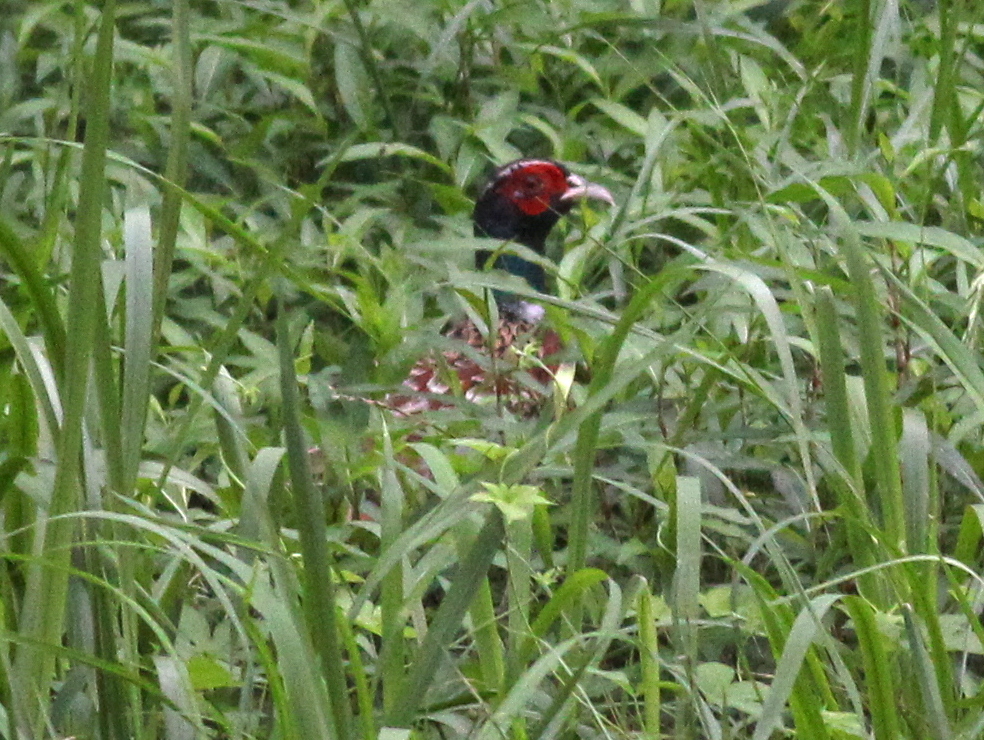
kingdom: Animalia
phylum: Chordata
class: Aves
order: Galliformes
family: Phasianidae
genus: Phasianus
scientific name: Phasianus colchicus
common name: Common pheasant
